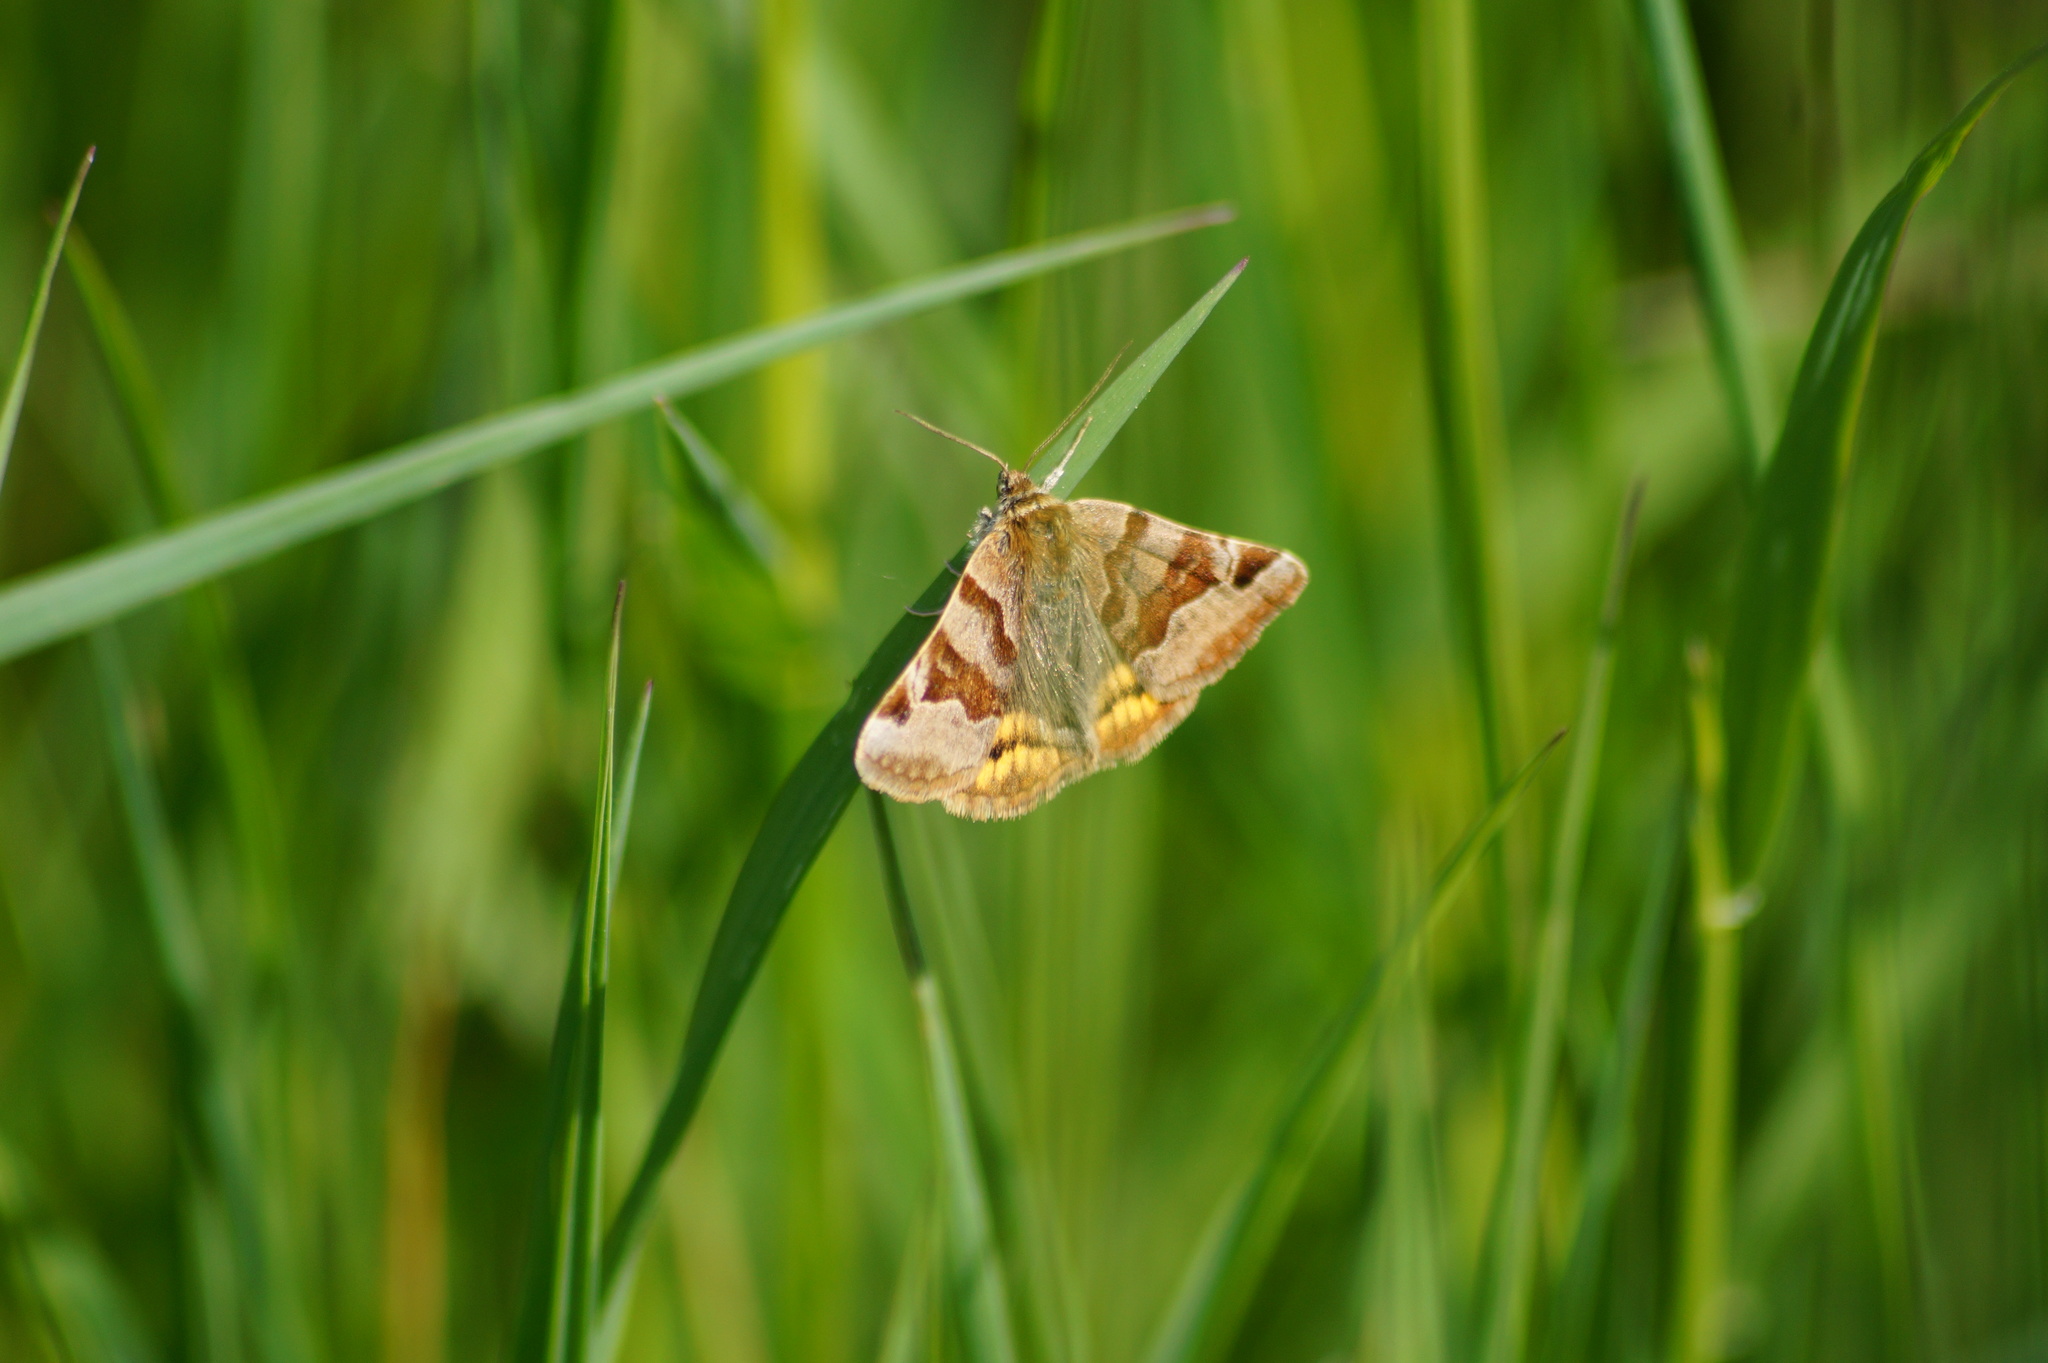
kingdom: Animalia
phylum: Arthropoda
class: Insecta
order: Lepidoptera
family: Erebidae
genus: Euclidia
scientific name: Euclidia glyphica
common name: Burnet companion
